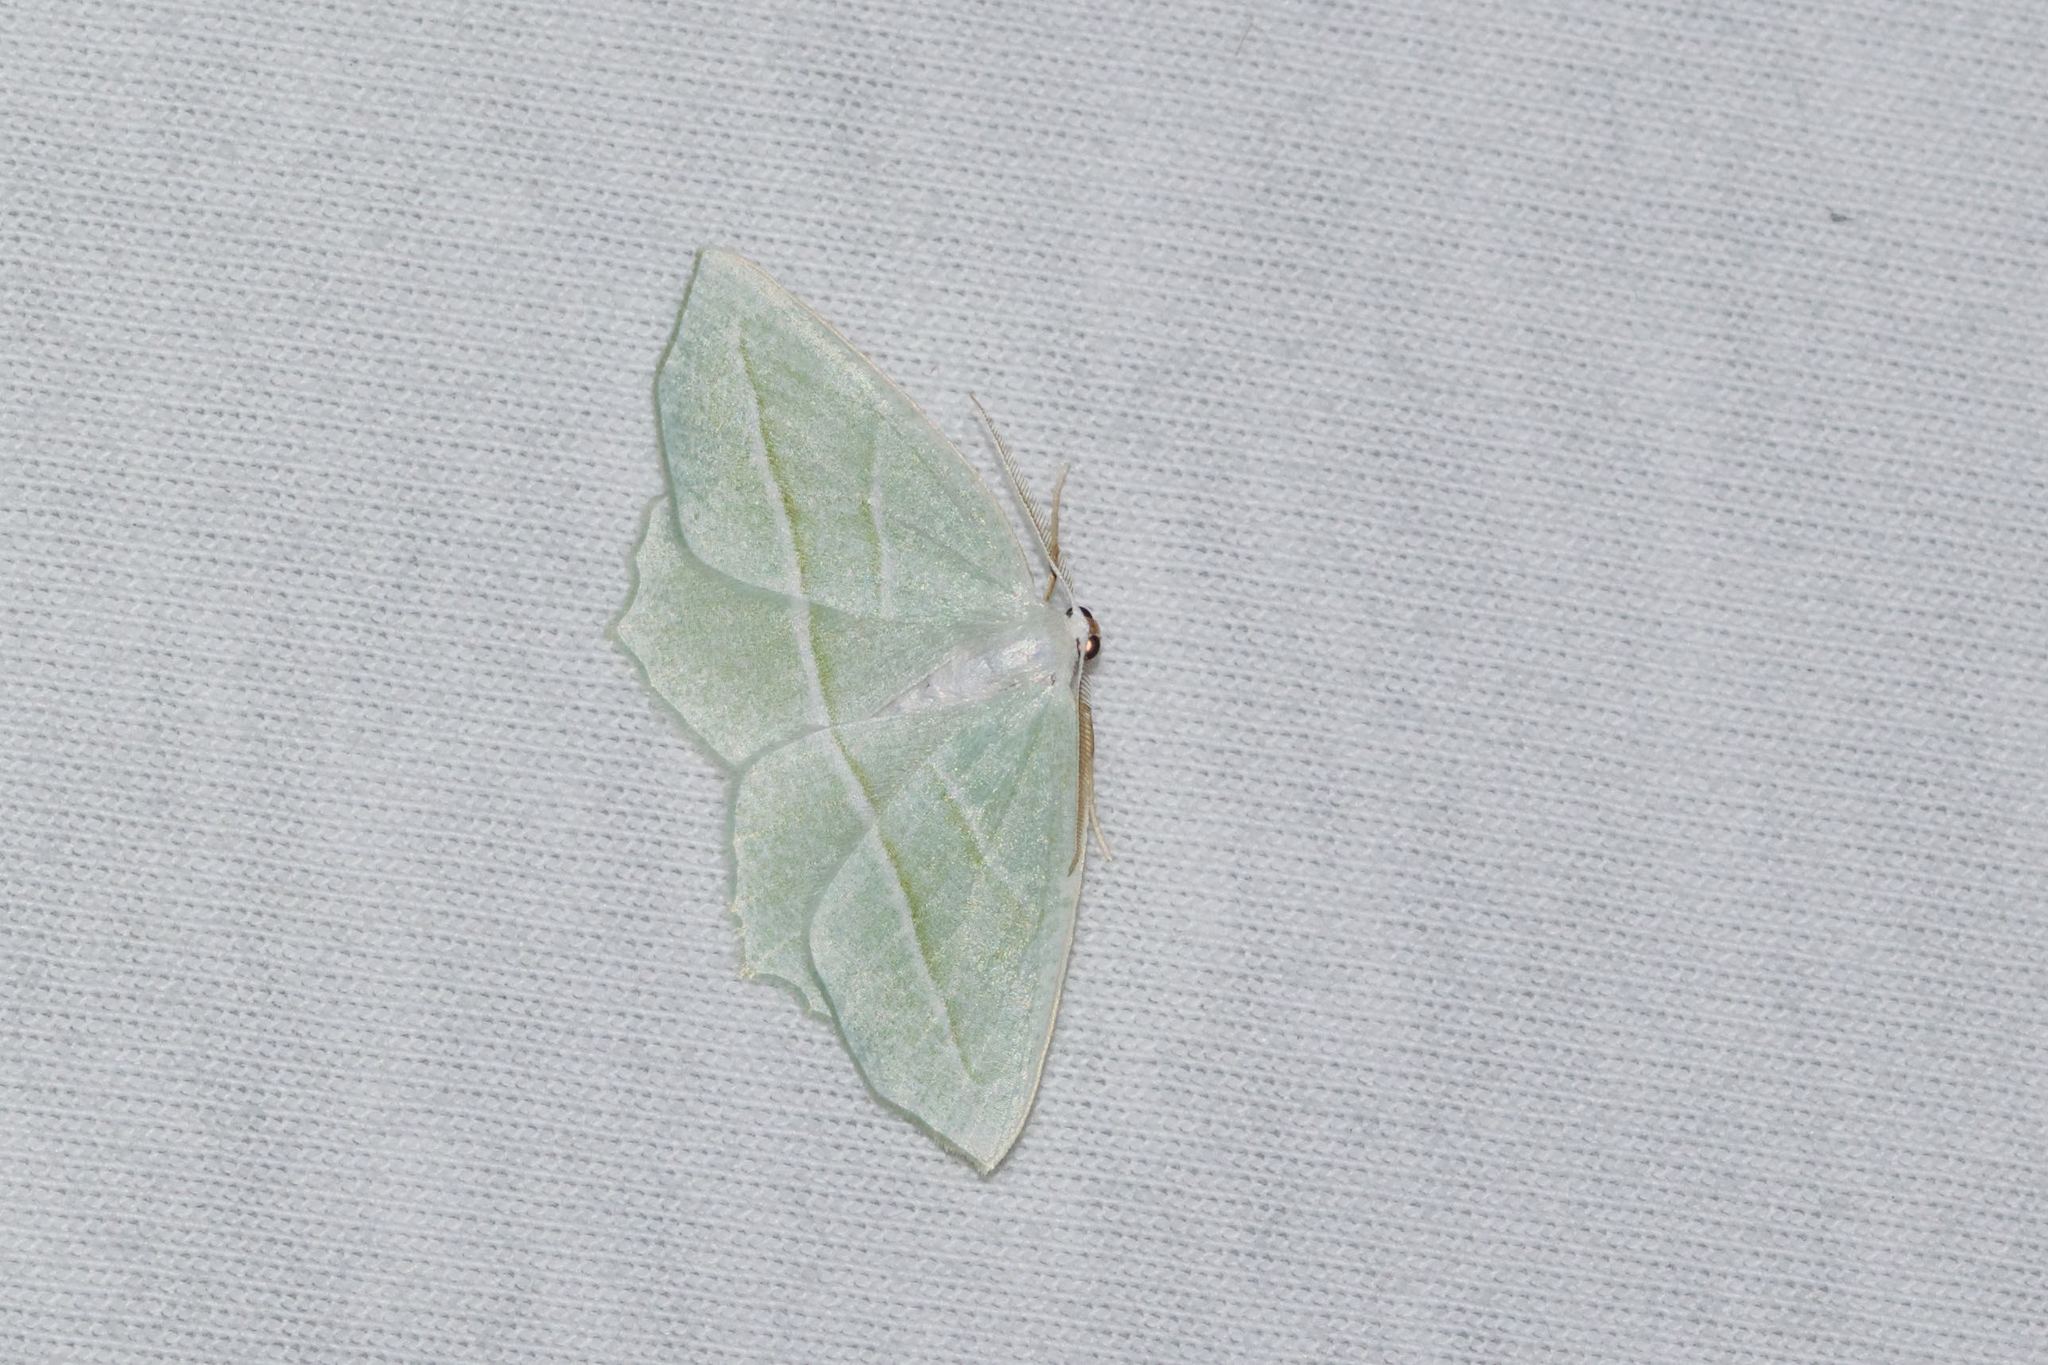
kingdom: Animalia
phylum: Arthropoda
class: Insecta
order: Lepidoptera
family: Geometridae
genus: Campaea
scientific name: Campaea perlata
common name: Fringed looper
